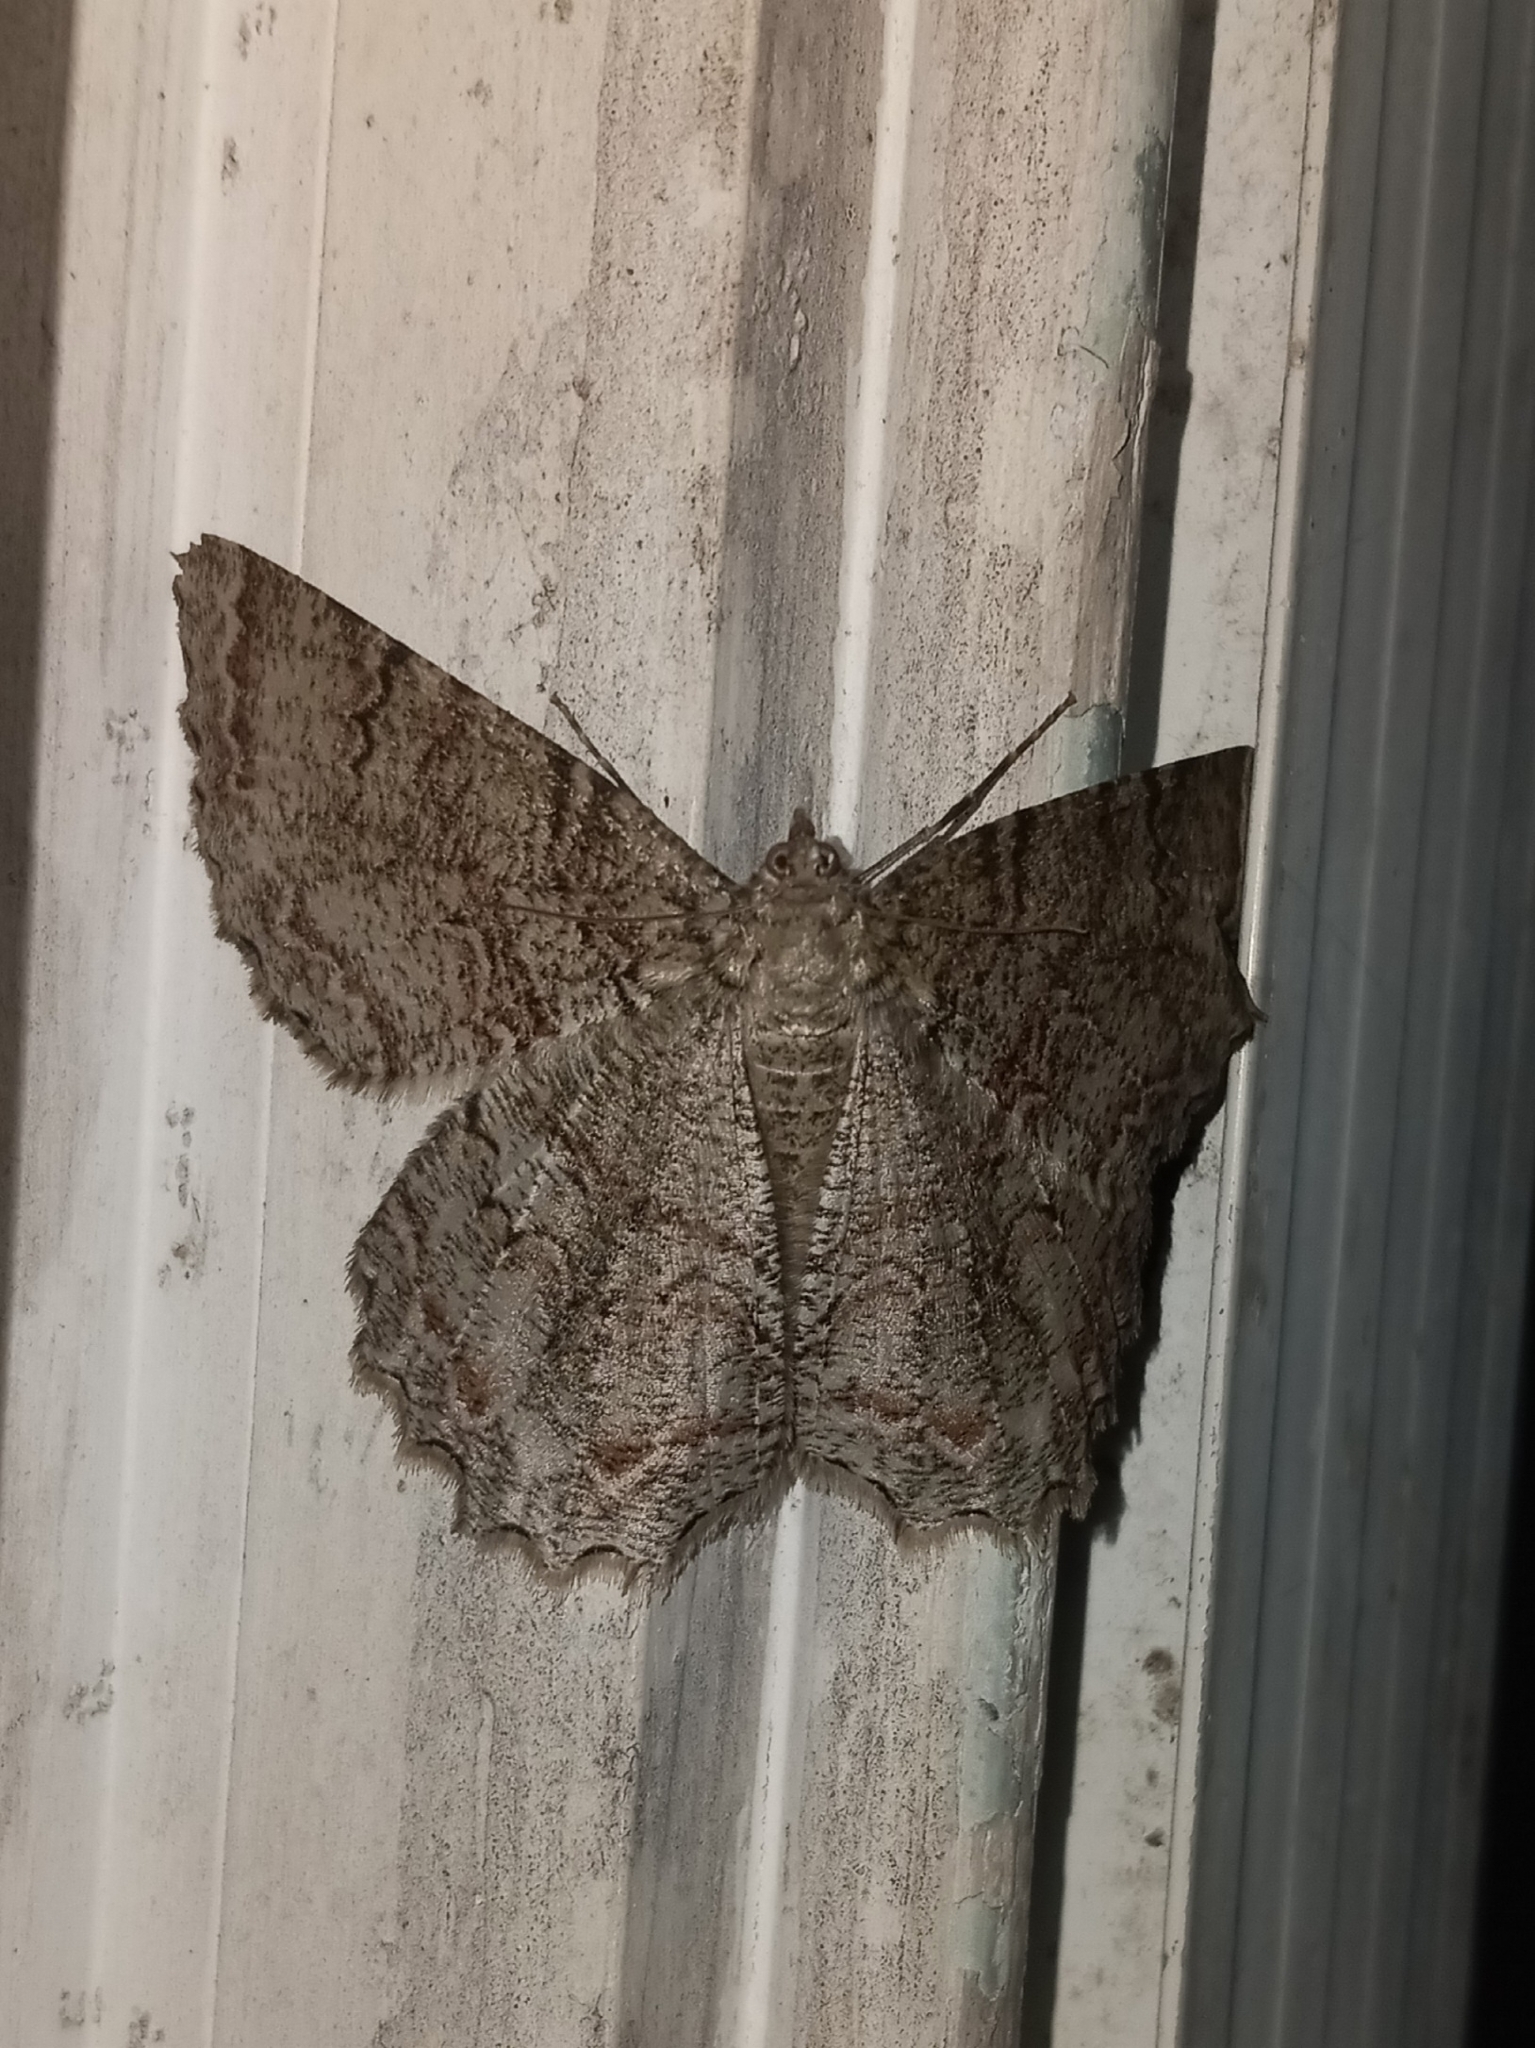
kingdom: Animalia
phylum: Arthropoda
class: Insecta
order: Lepidoptera
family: Geometridae
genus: Epimecis
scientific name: Epimecis hortaria
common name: Tulip-tree beauty
